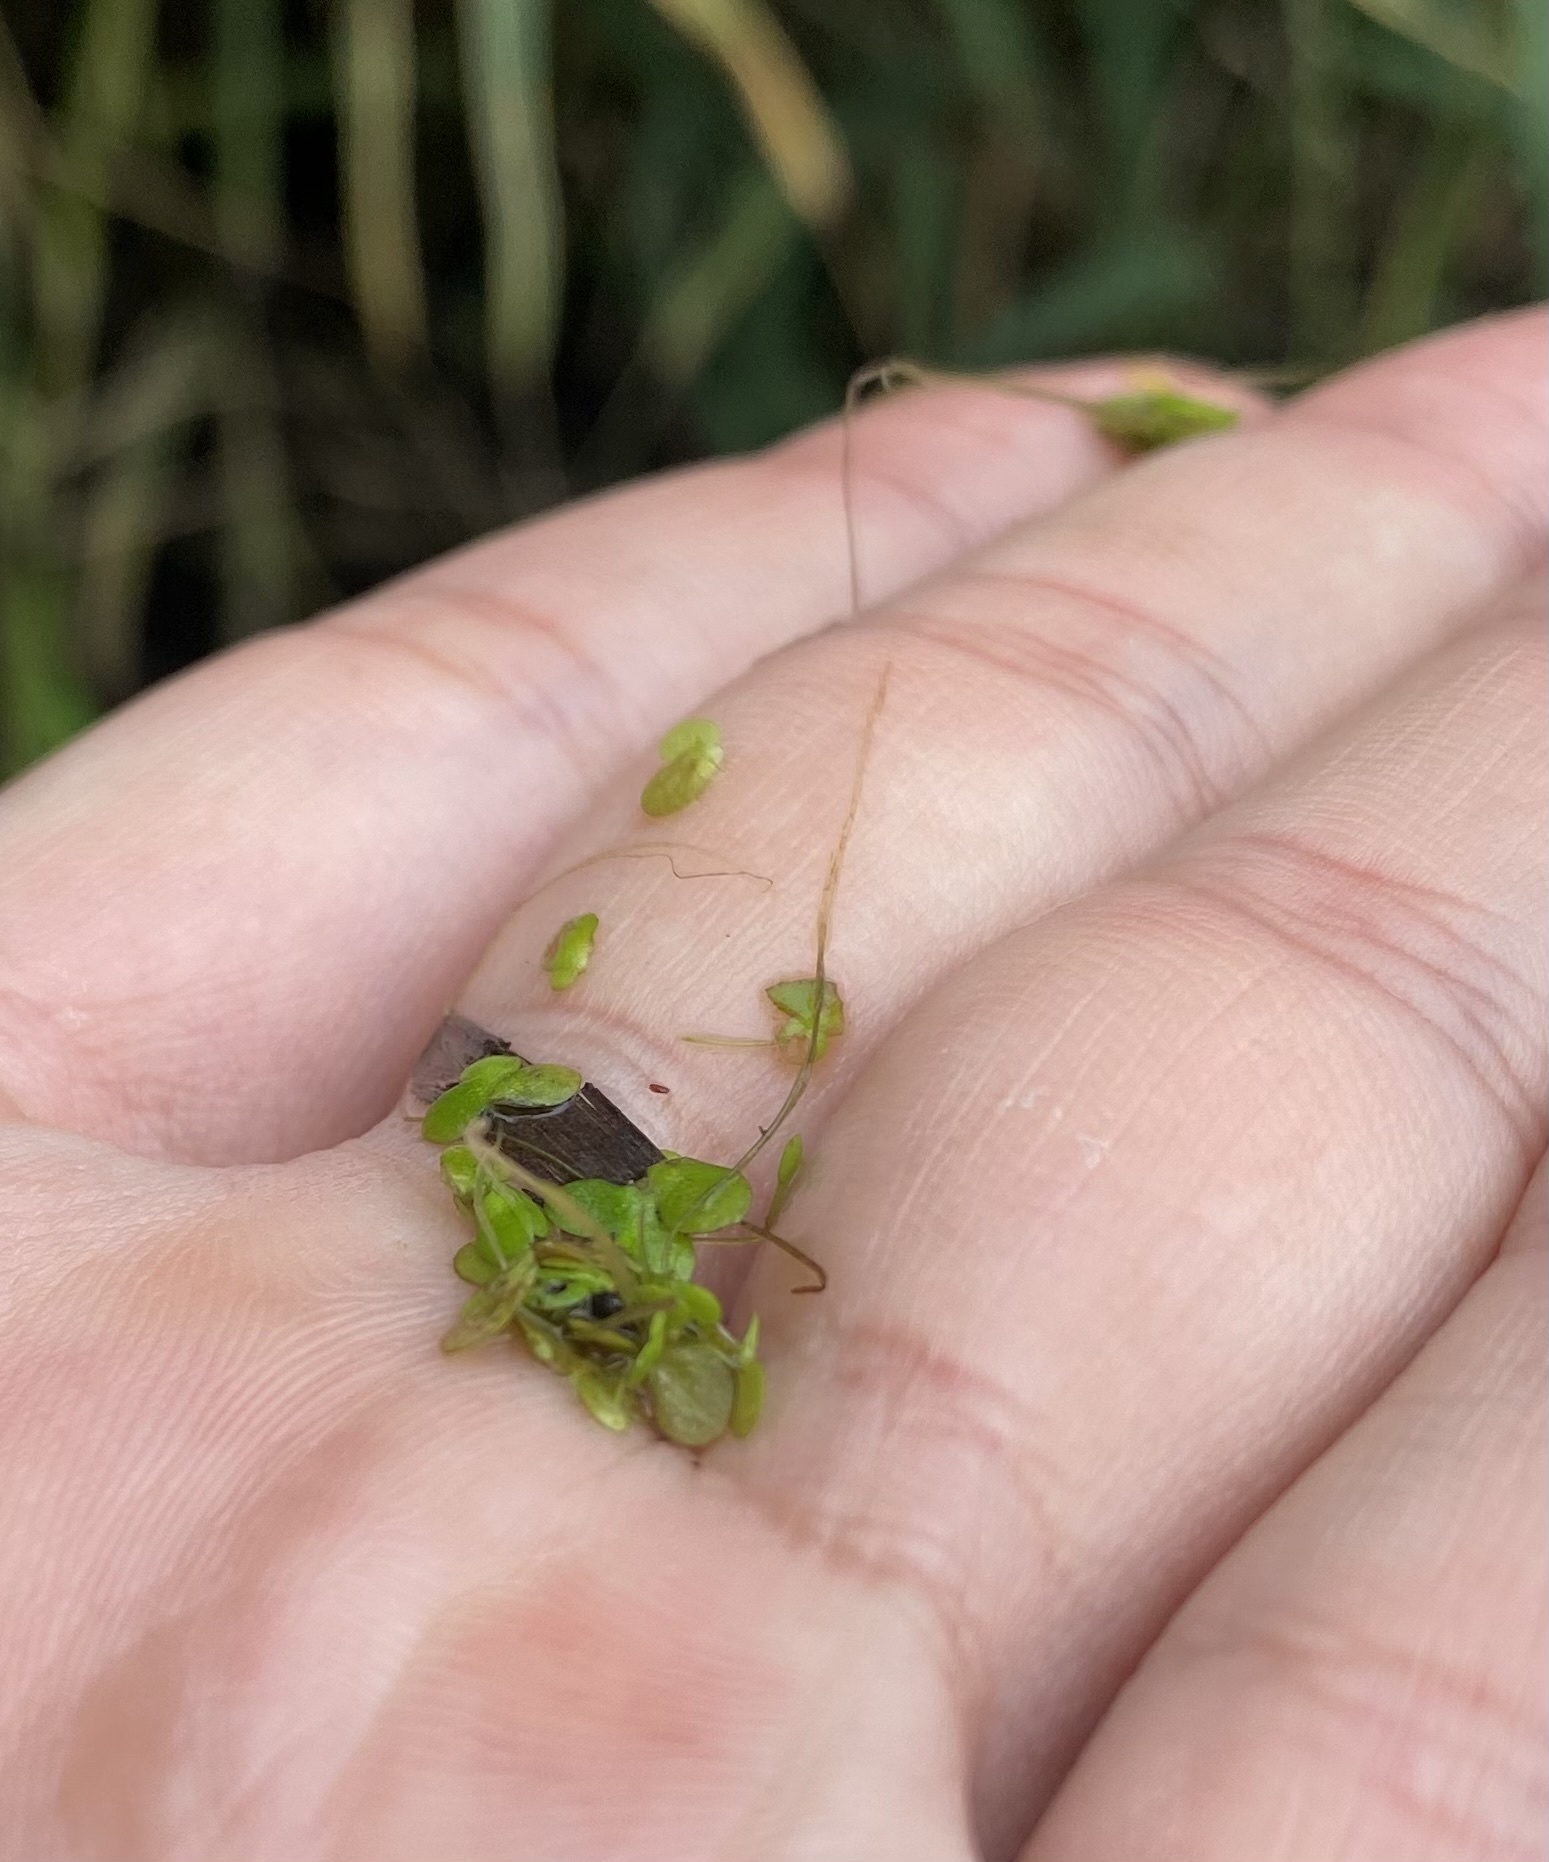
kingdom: Plantae
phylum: Tracheophyta
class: Liliopsida
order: Alismatales
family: Araceae
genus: Lemna
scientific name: Lemna minor
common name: Common duckweed
